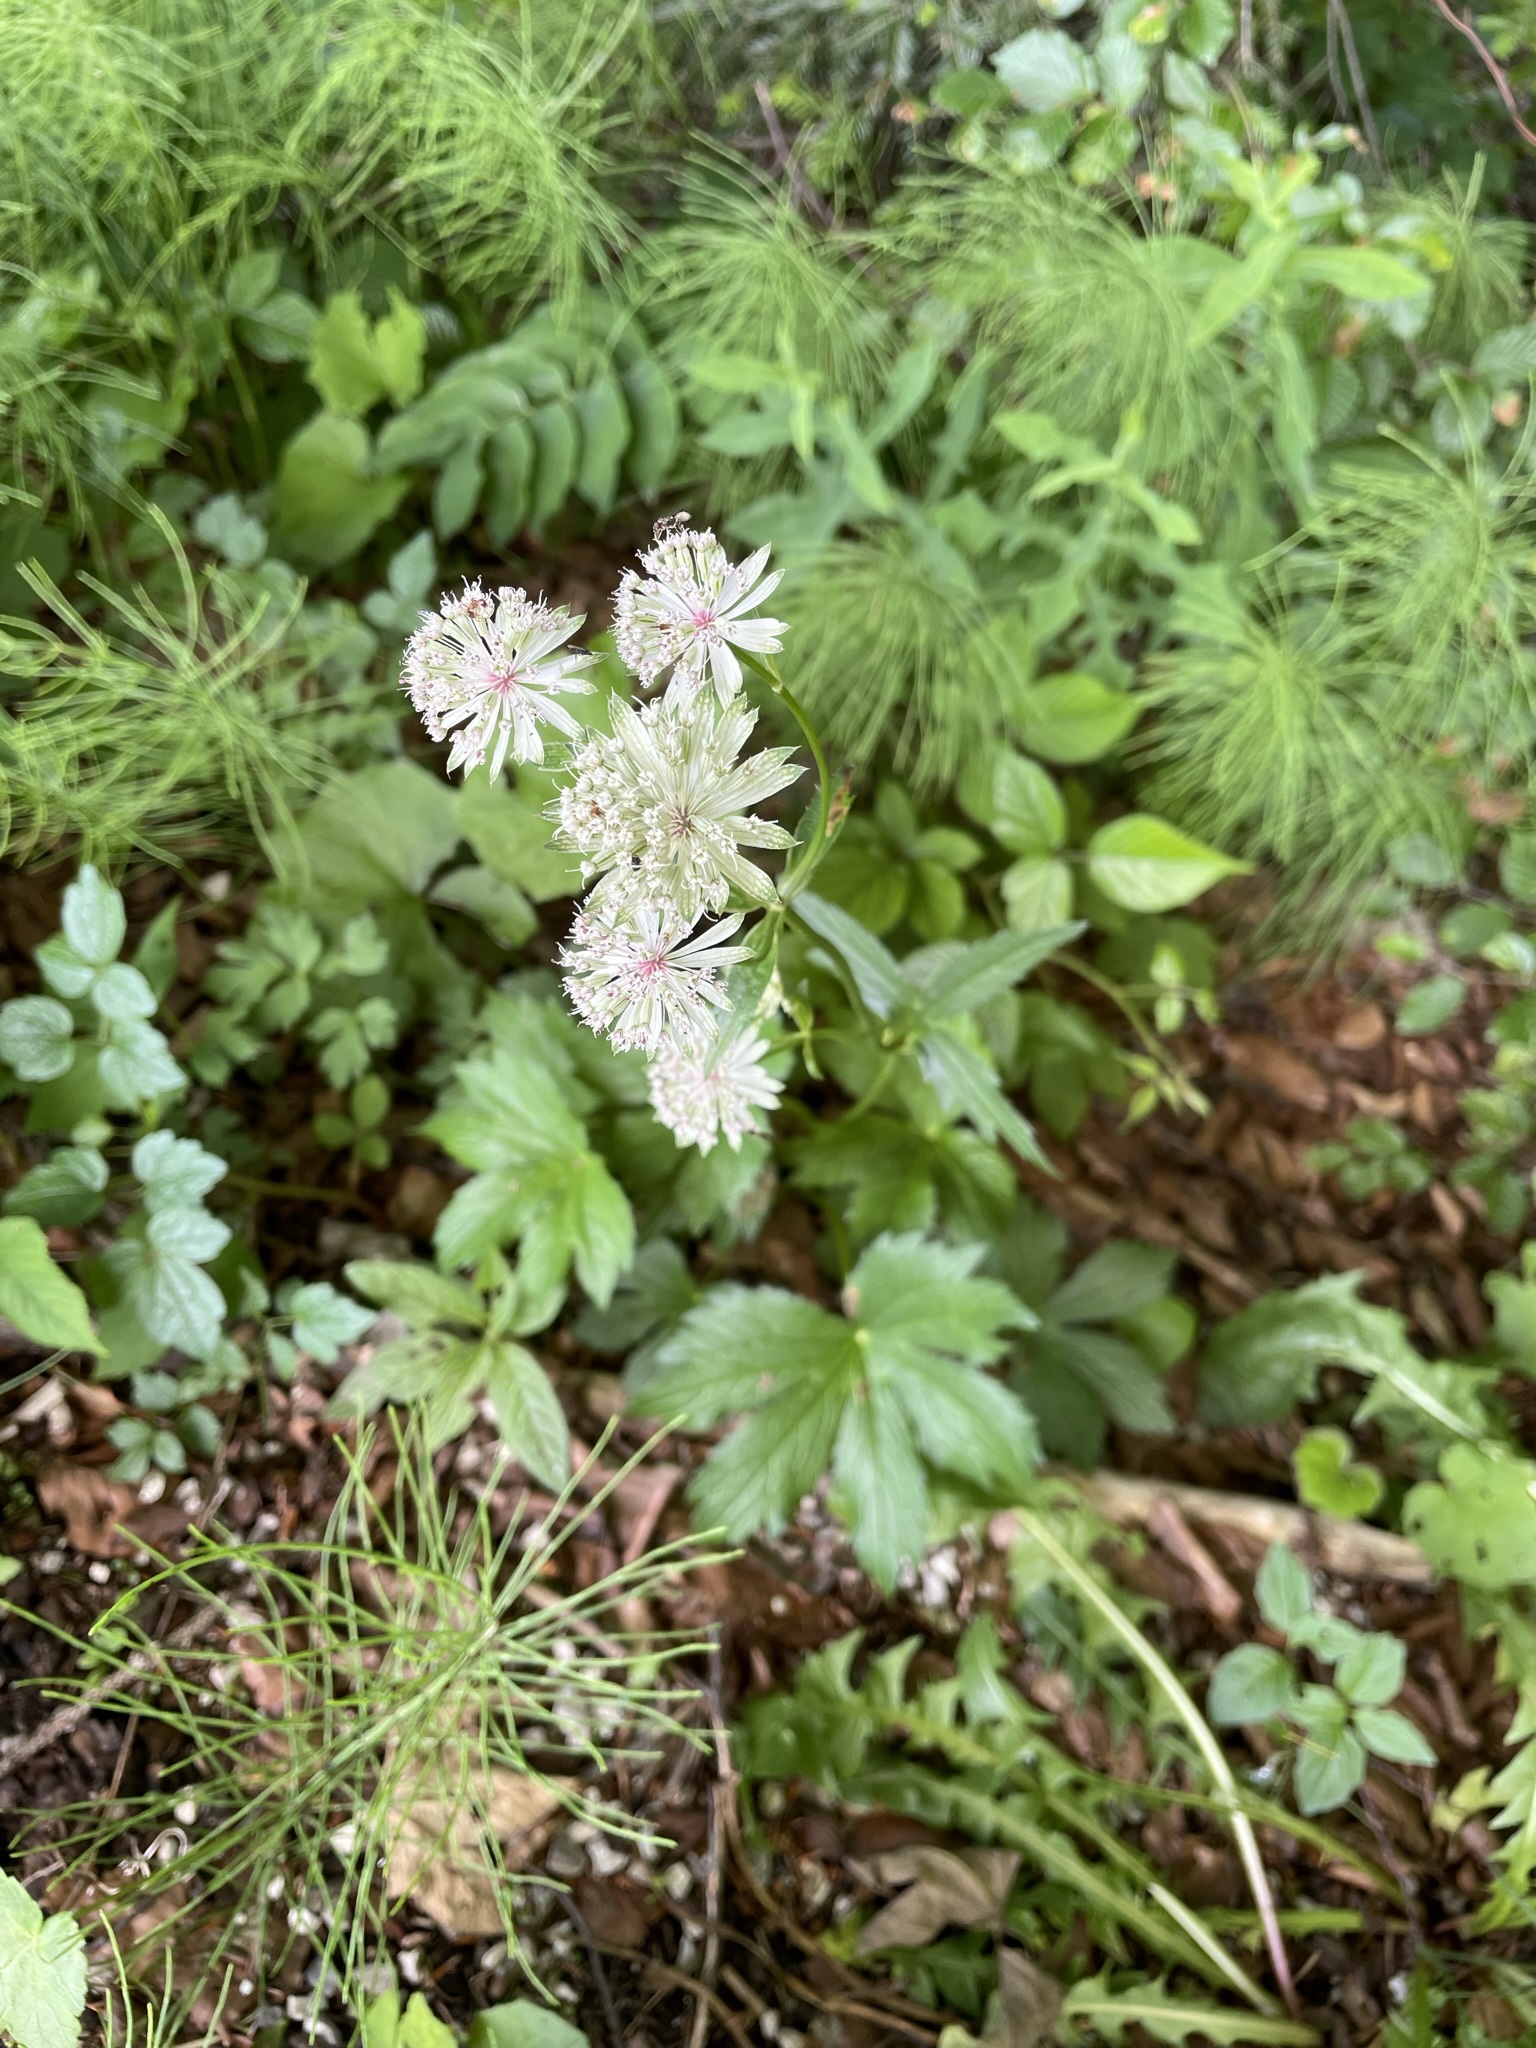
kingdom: Plantae
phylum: Tracheophyta
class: Magnoliopsida
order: Apiales
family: Apiaceae
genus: Astrantia
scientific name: Astrantia major
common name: Greater masterwort
